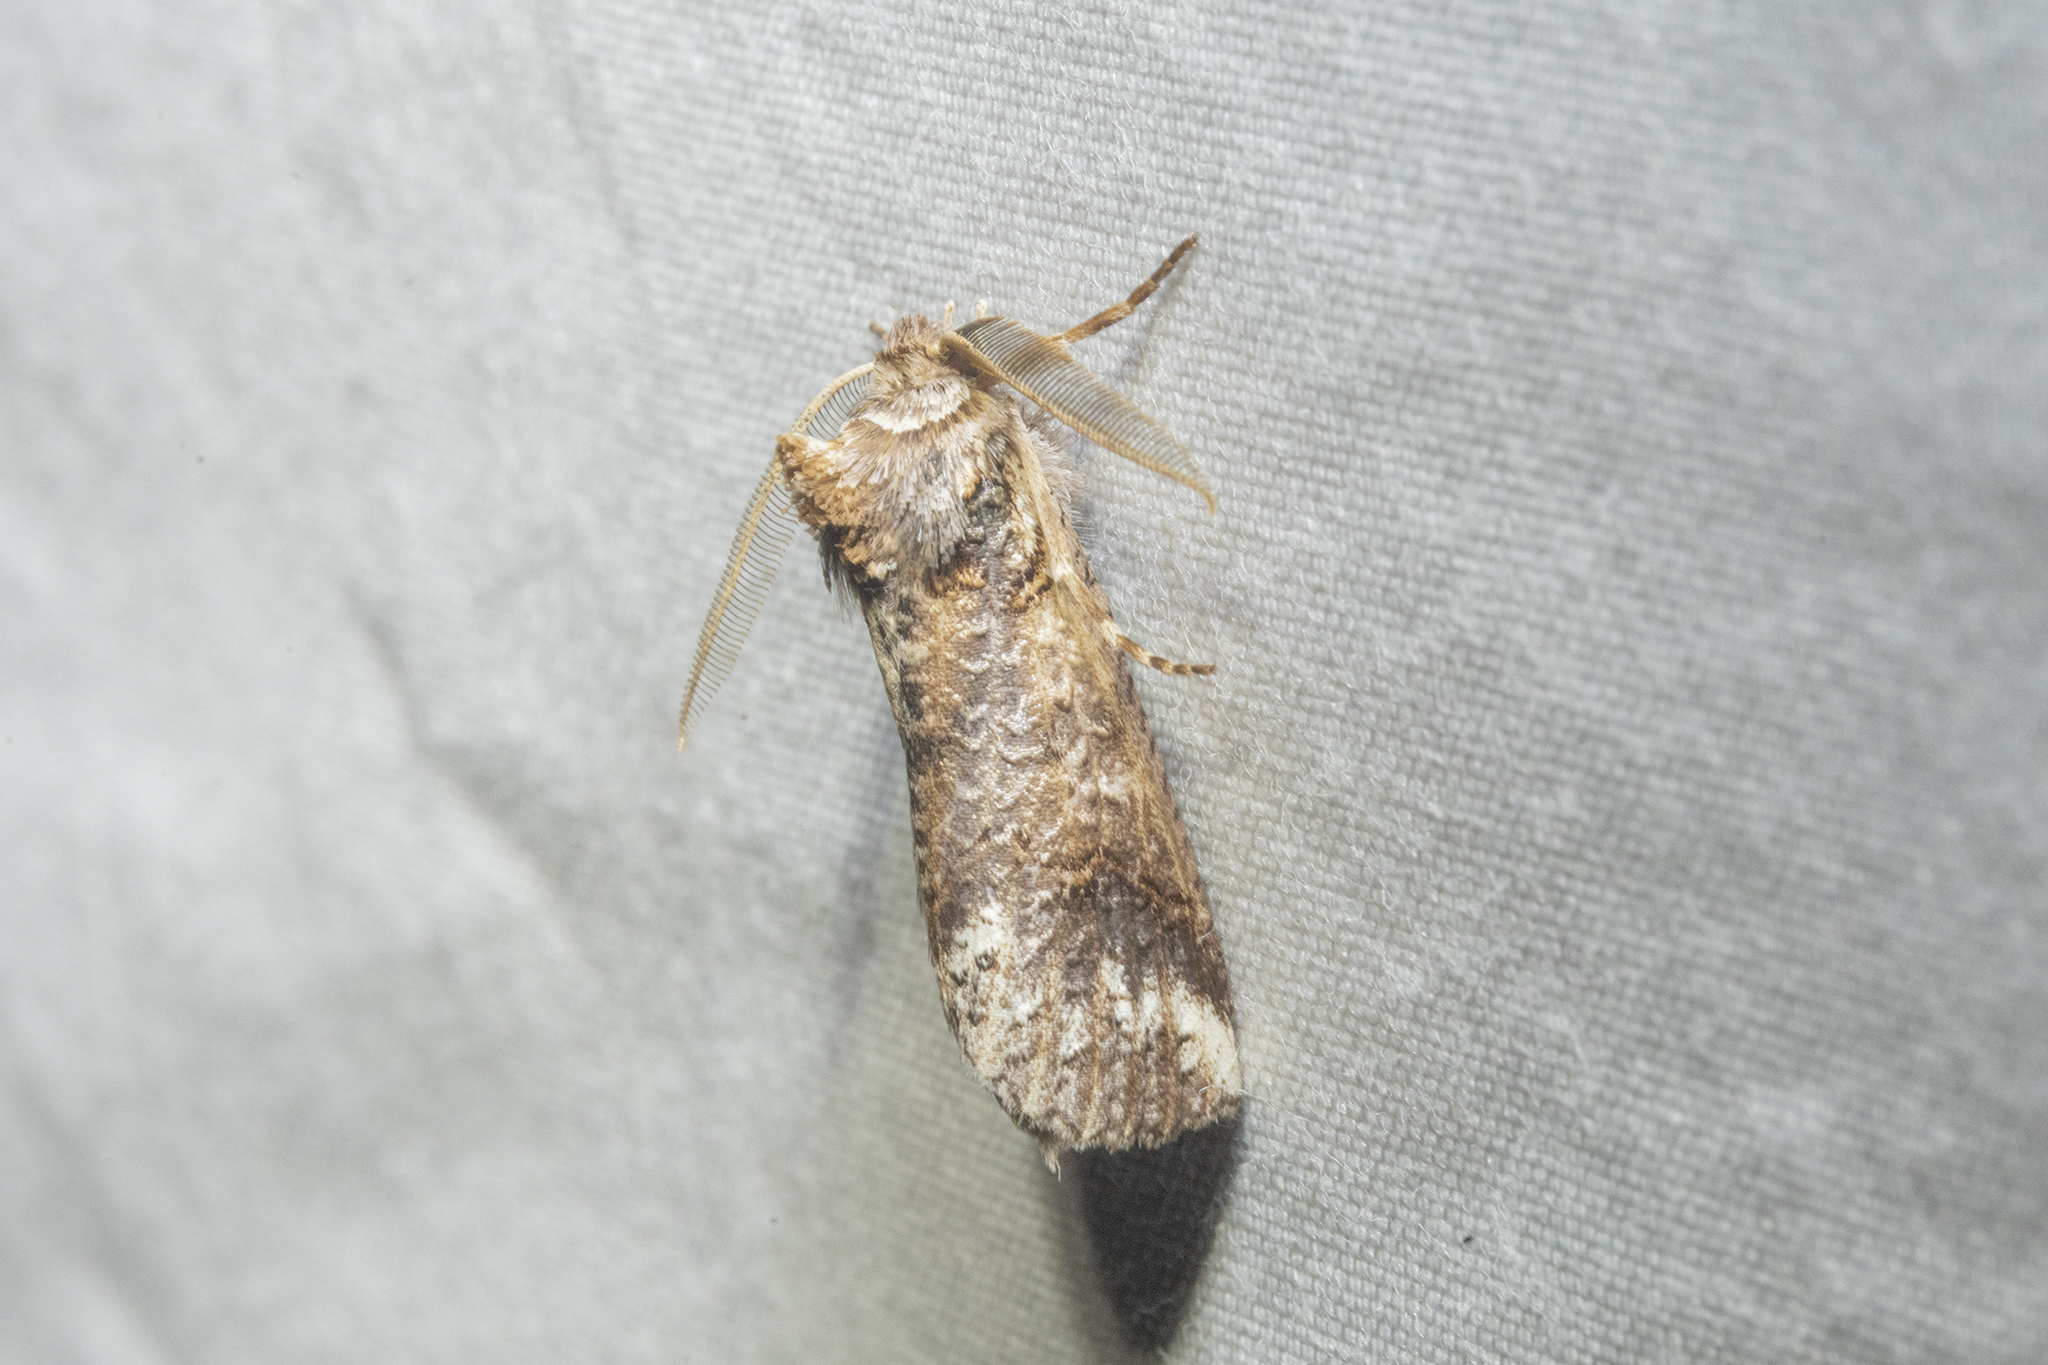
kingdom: Animalia
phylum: Arthropoda
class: Insecta
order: Lepidoptera
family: Geometridae
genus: Declana
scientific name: Declana
